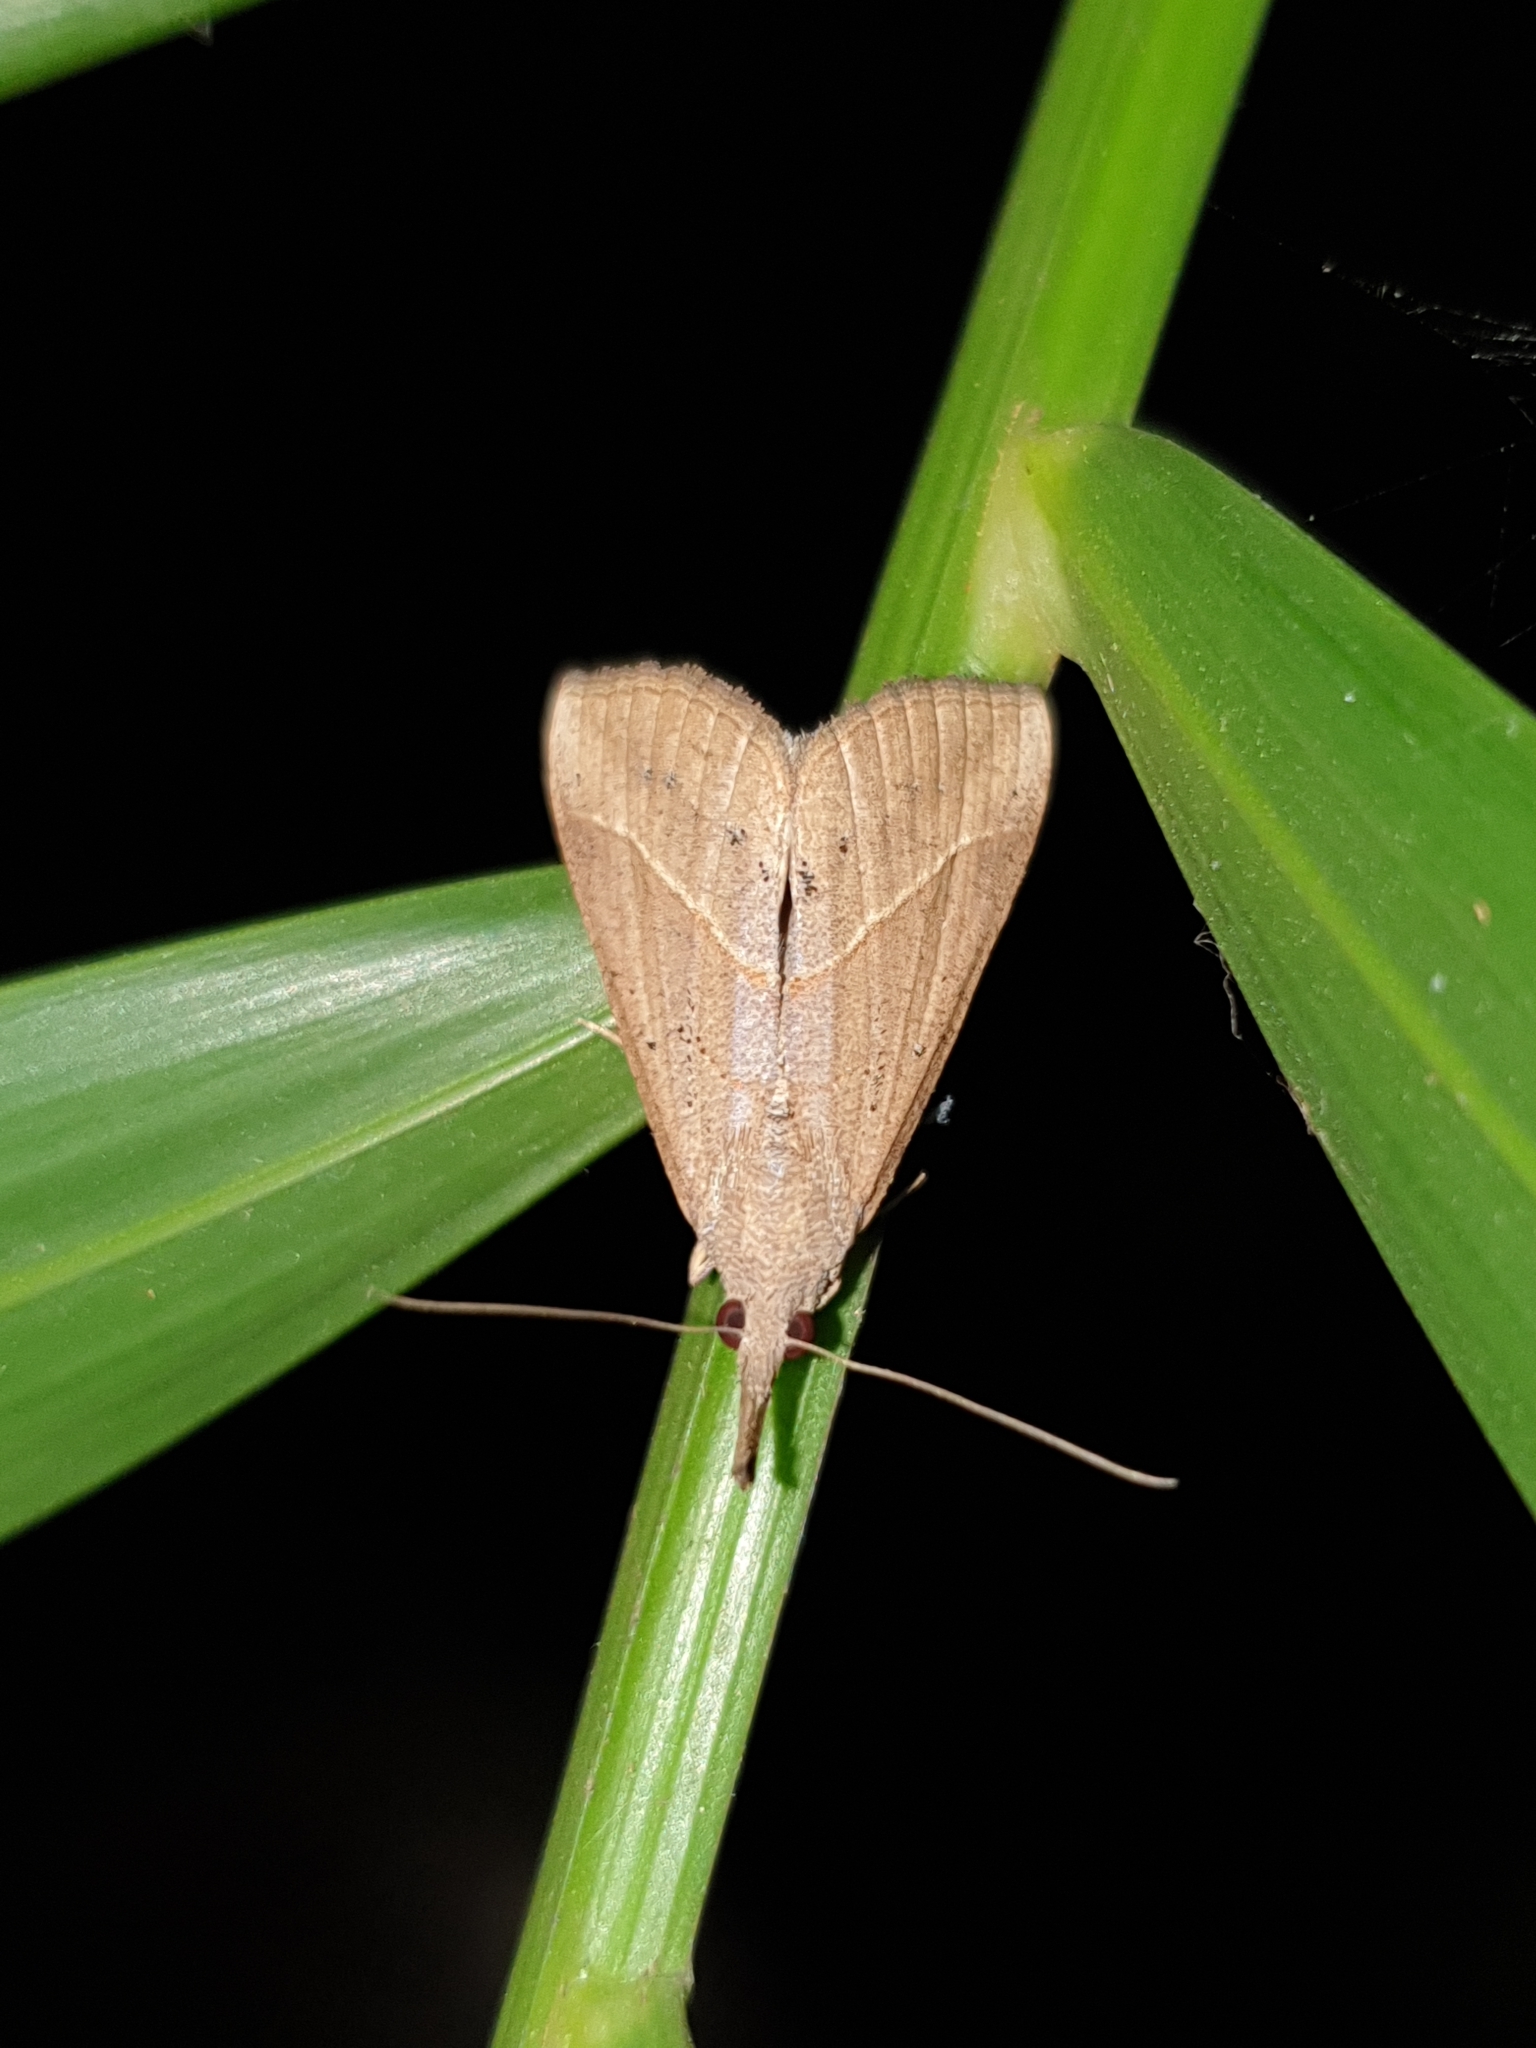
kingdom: Animalia
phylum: Arthropoda
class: Insecta
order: Lepidoptera
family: Erebidae
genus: Hypena
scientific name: Hypena lividalis
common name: Chevron snout
